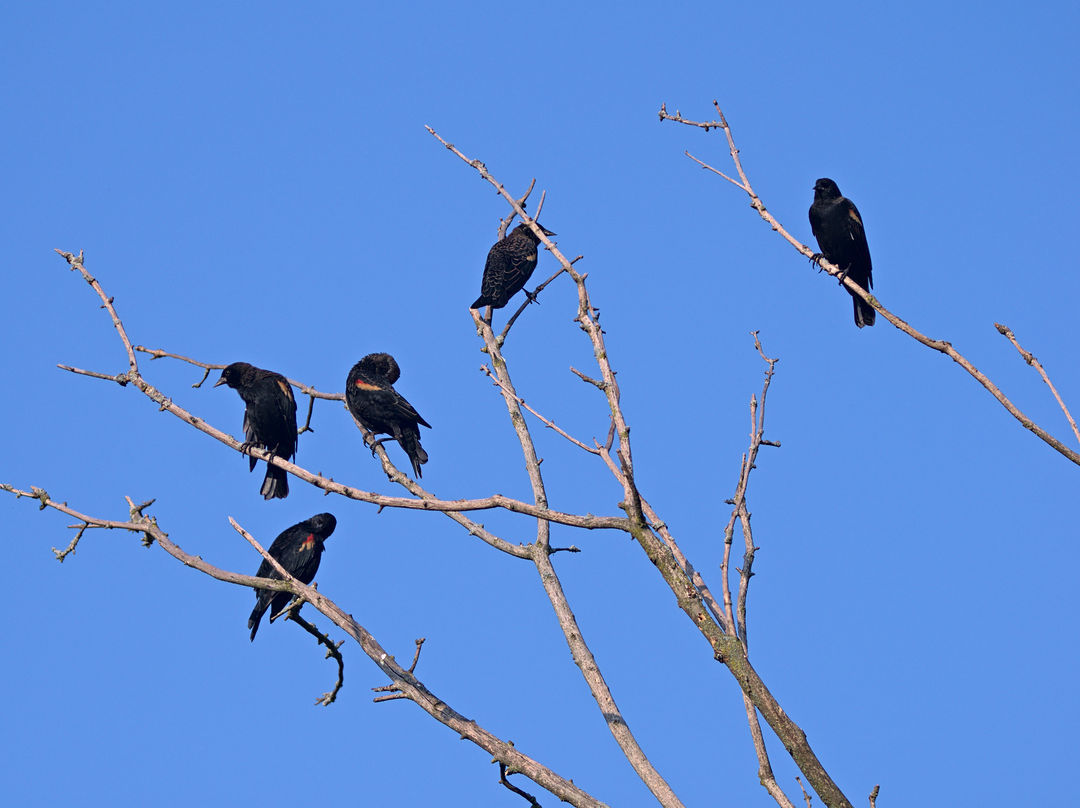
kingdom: Animalia
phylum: Chordata
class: Aves
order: Passeriformes
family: Icteridae
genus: Agelaius
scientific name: Agelaius phoeniceus
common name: Red-winged blackbird
